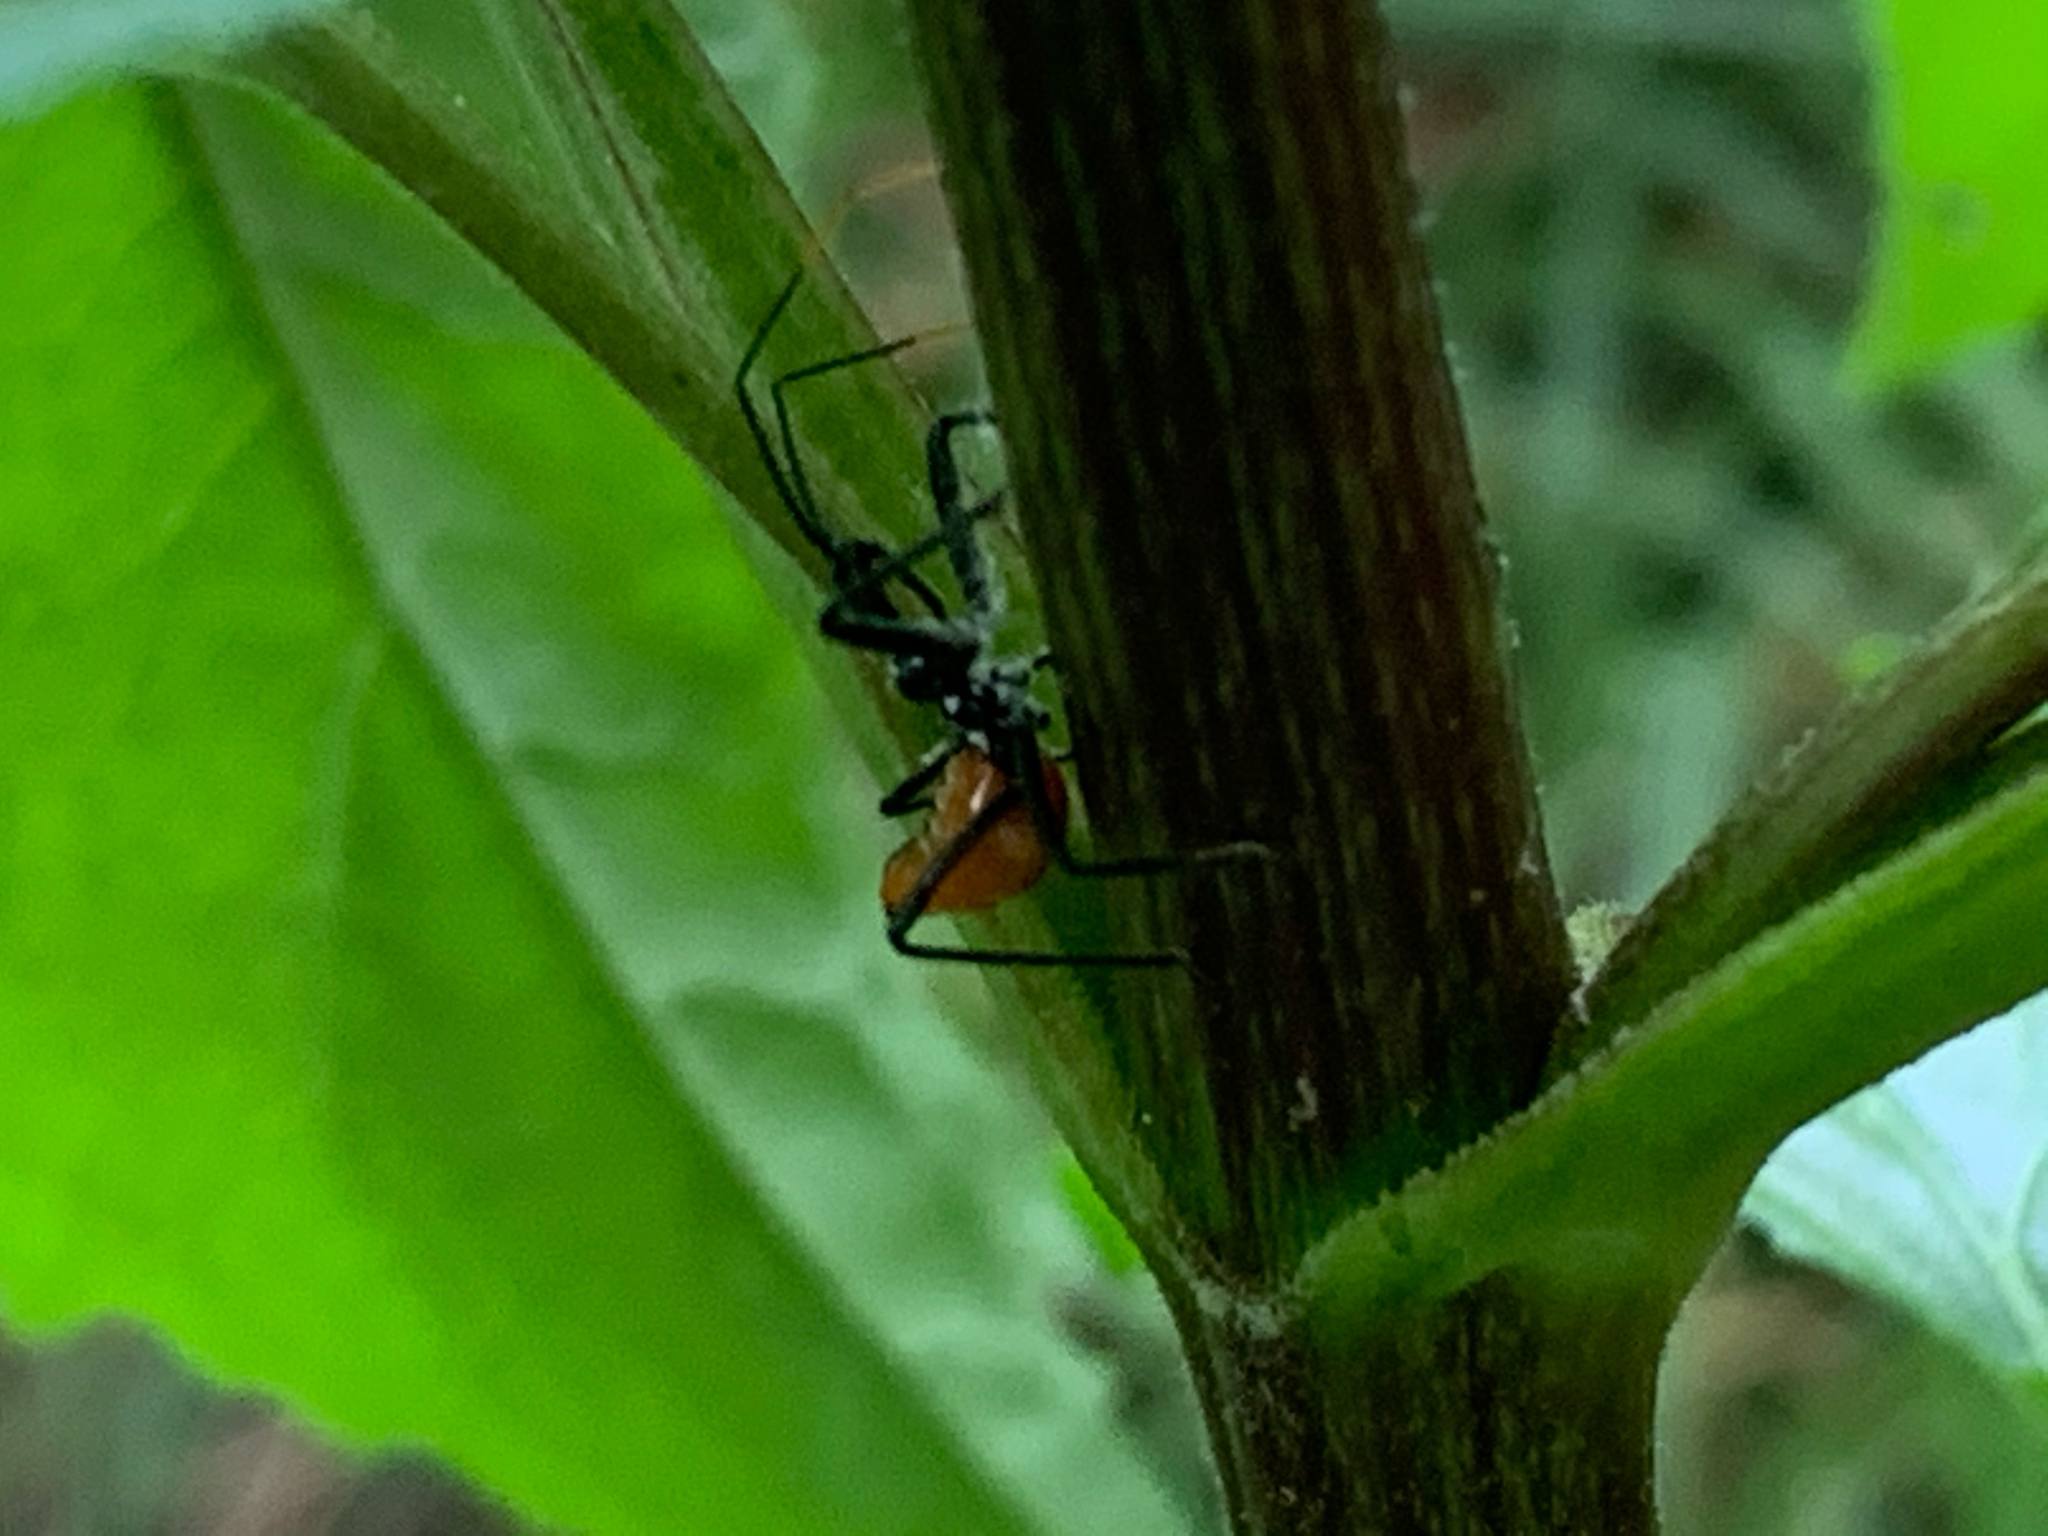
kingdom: Animalia
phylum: Arthropoda
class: Insecta
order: Hemiptera
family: Reduviidae
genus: Arilus
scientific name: Arilus cristatus
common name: North american wheel bug
